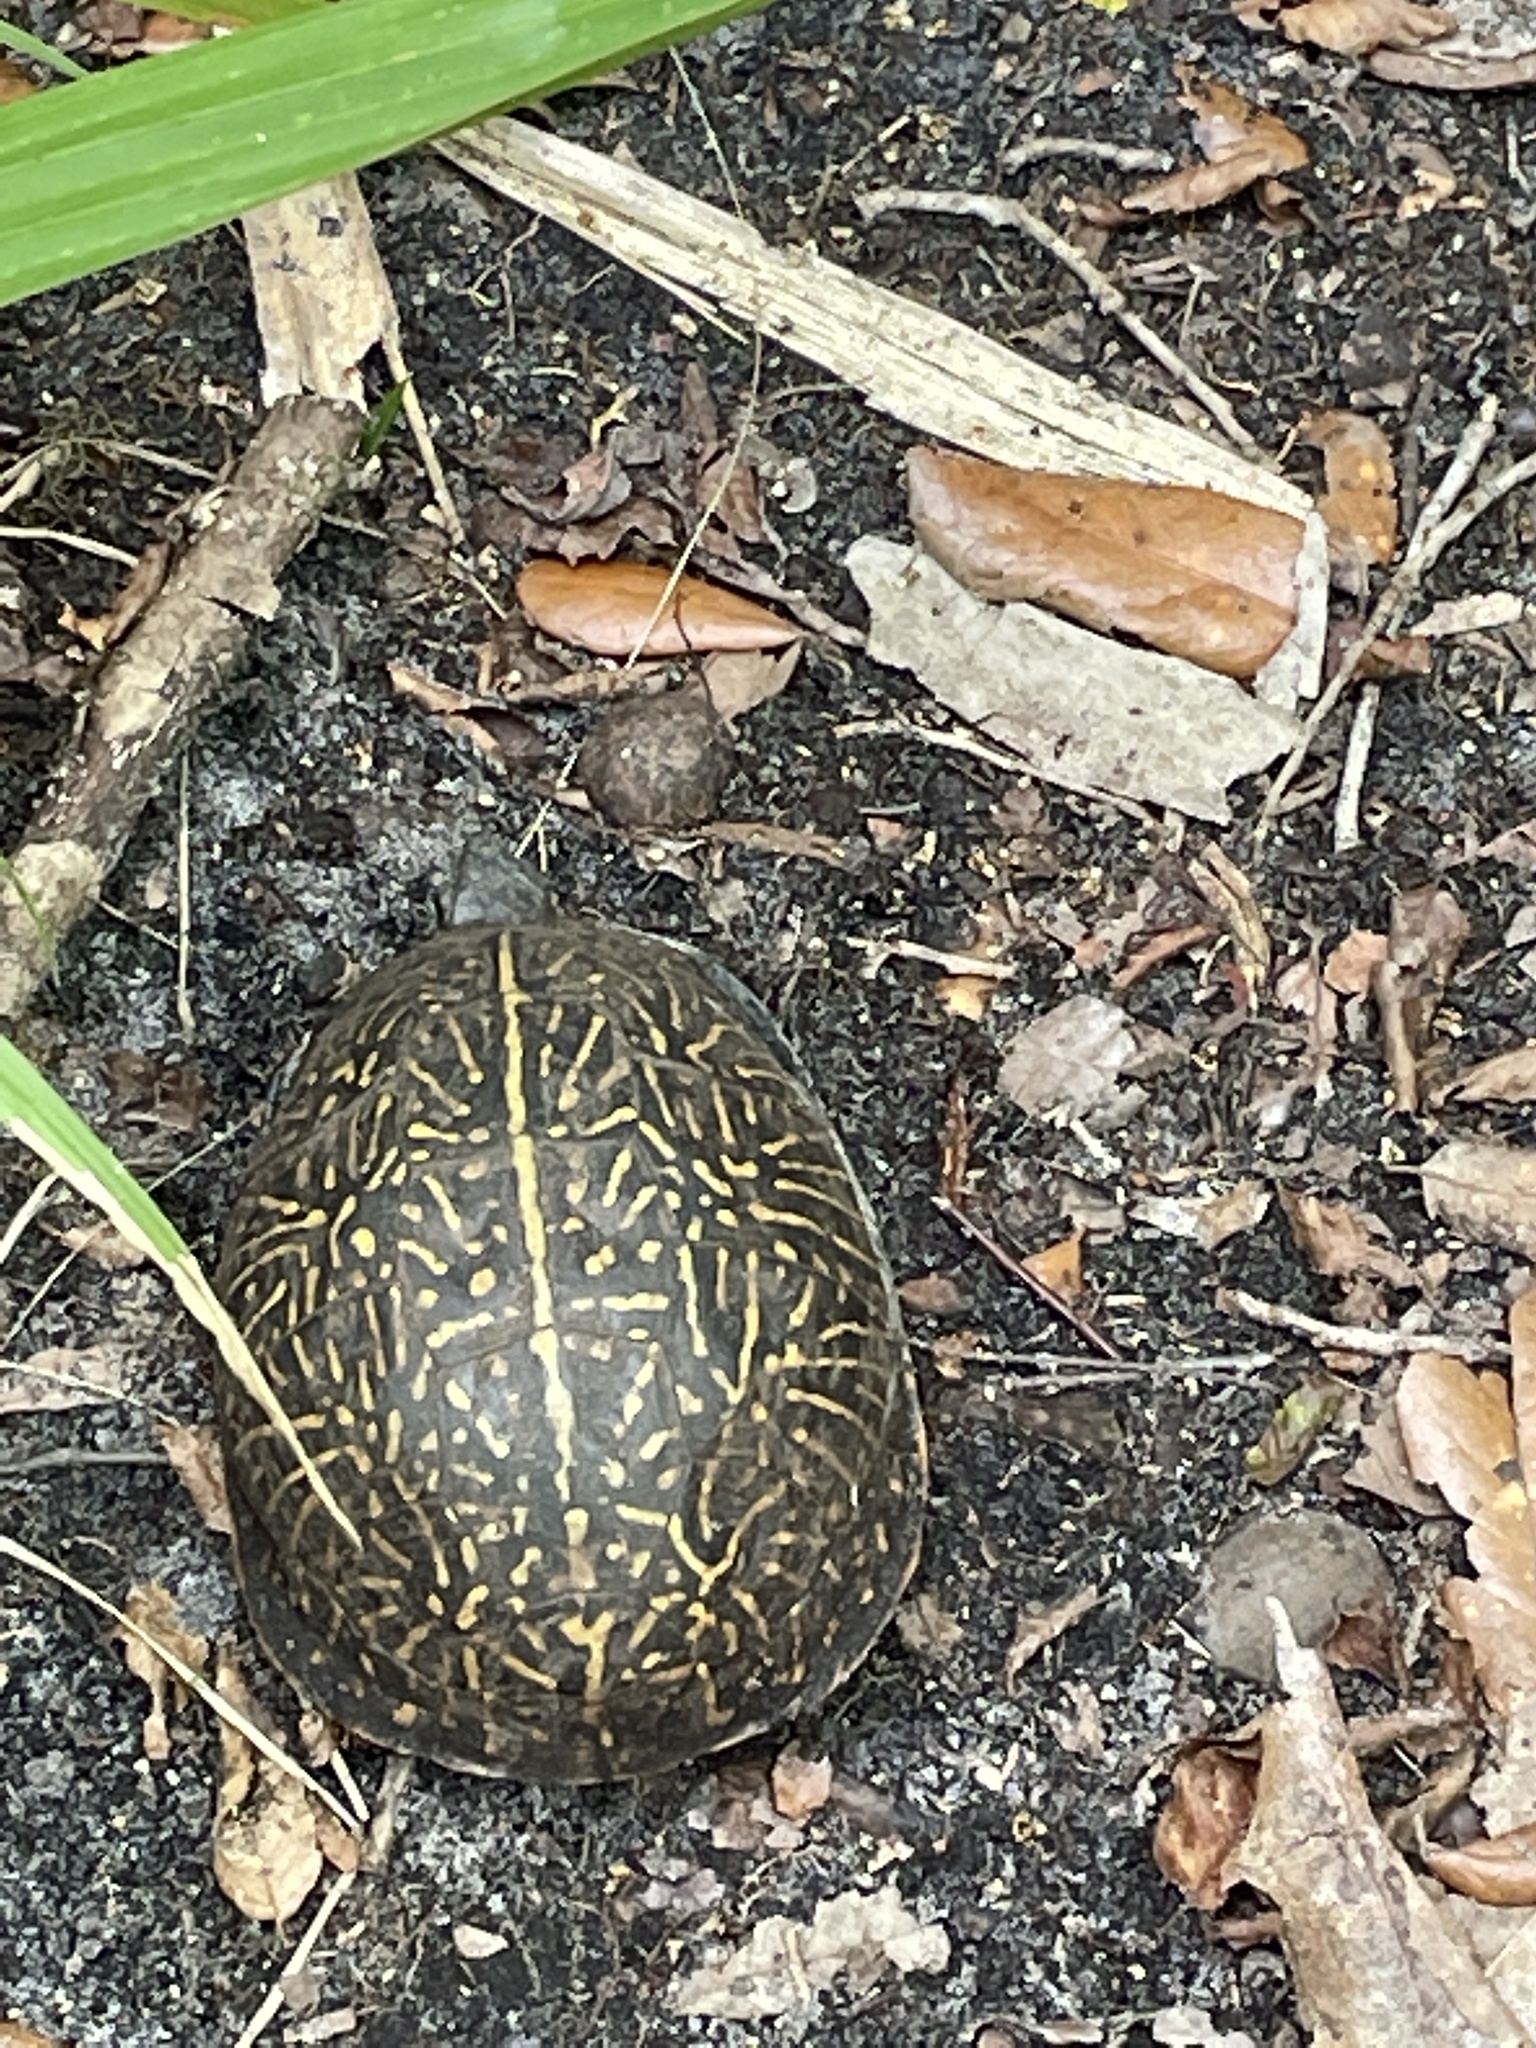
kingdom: Animalia
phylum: Chordata
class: Testudines
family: Emydidae
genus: Terrapene
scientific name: Terrapene carolina
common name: Common box turtle
